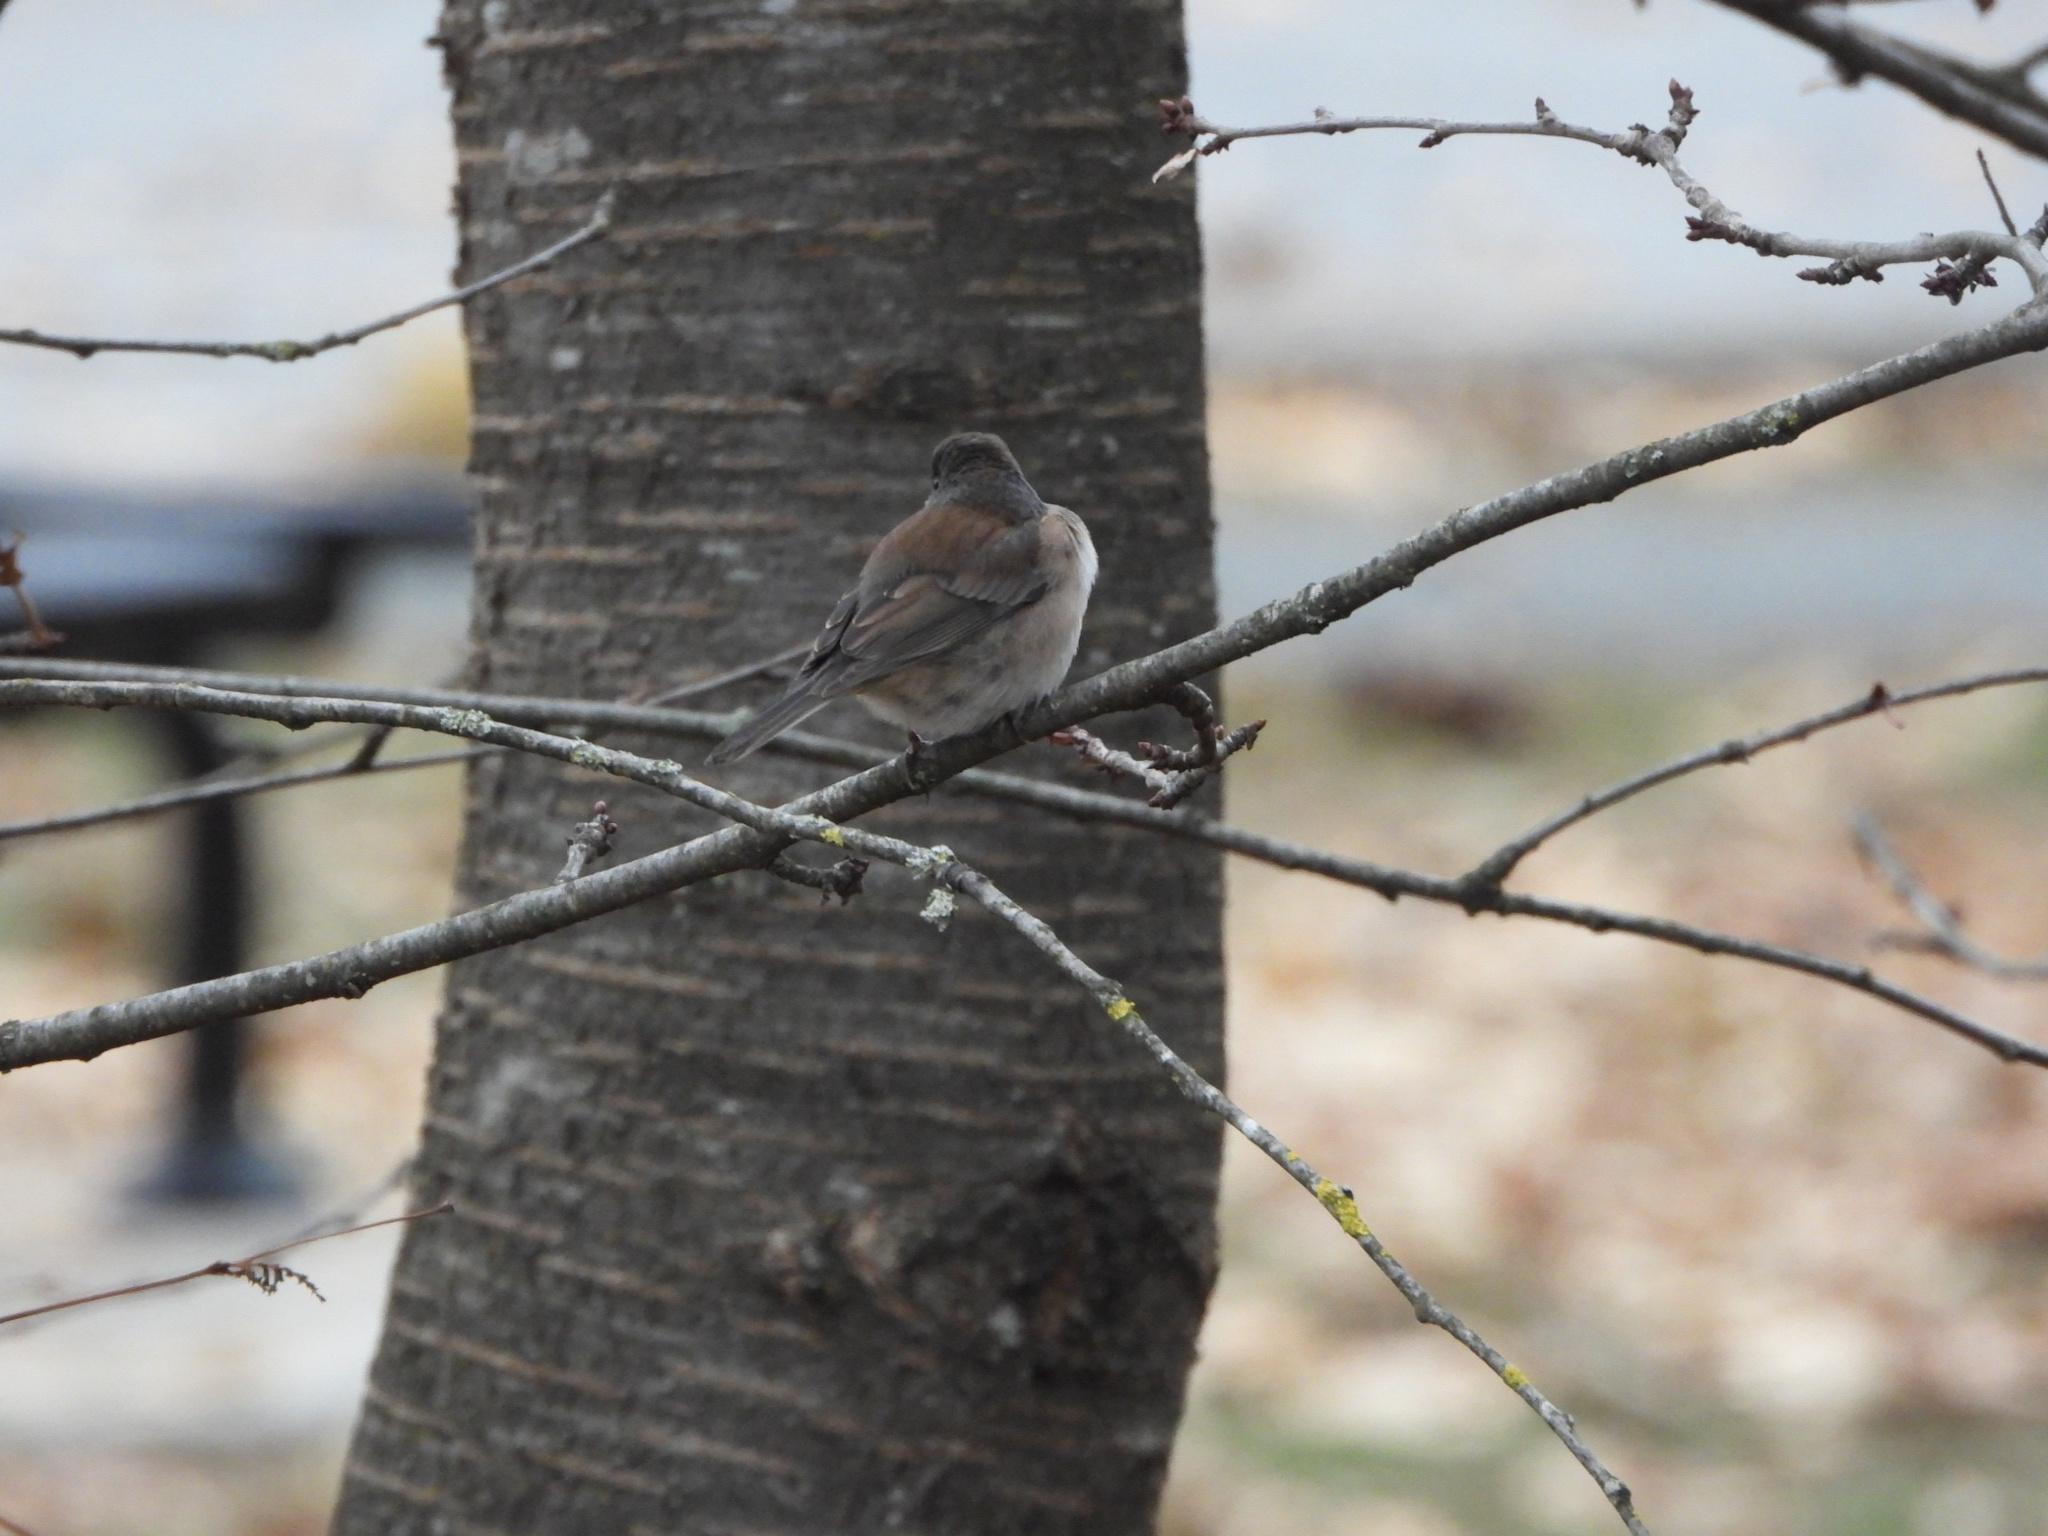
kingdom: Animalia
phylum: Chordata
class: Aves
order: Passeriformes
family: Passerellidae
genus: Junco
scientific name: Junco hyemalis
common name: Dark-eyed junco
